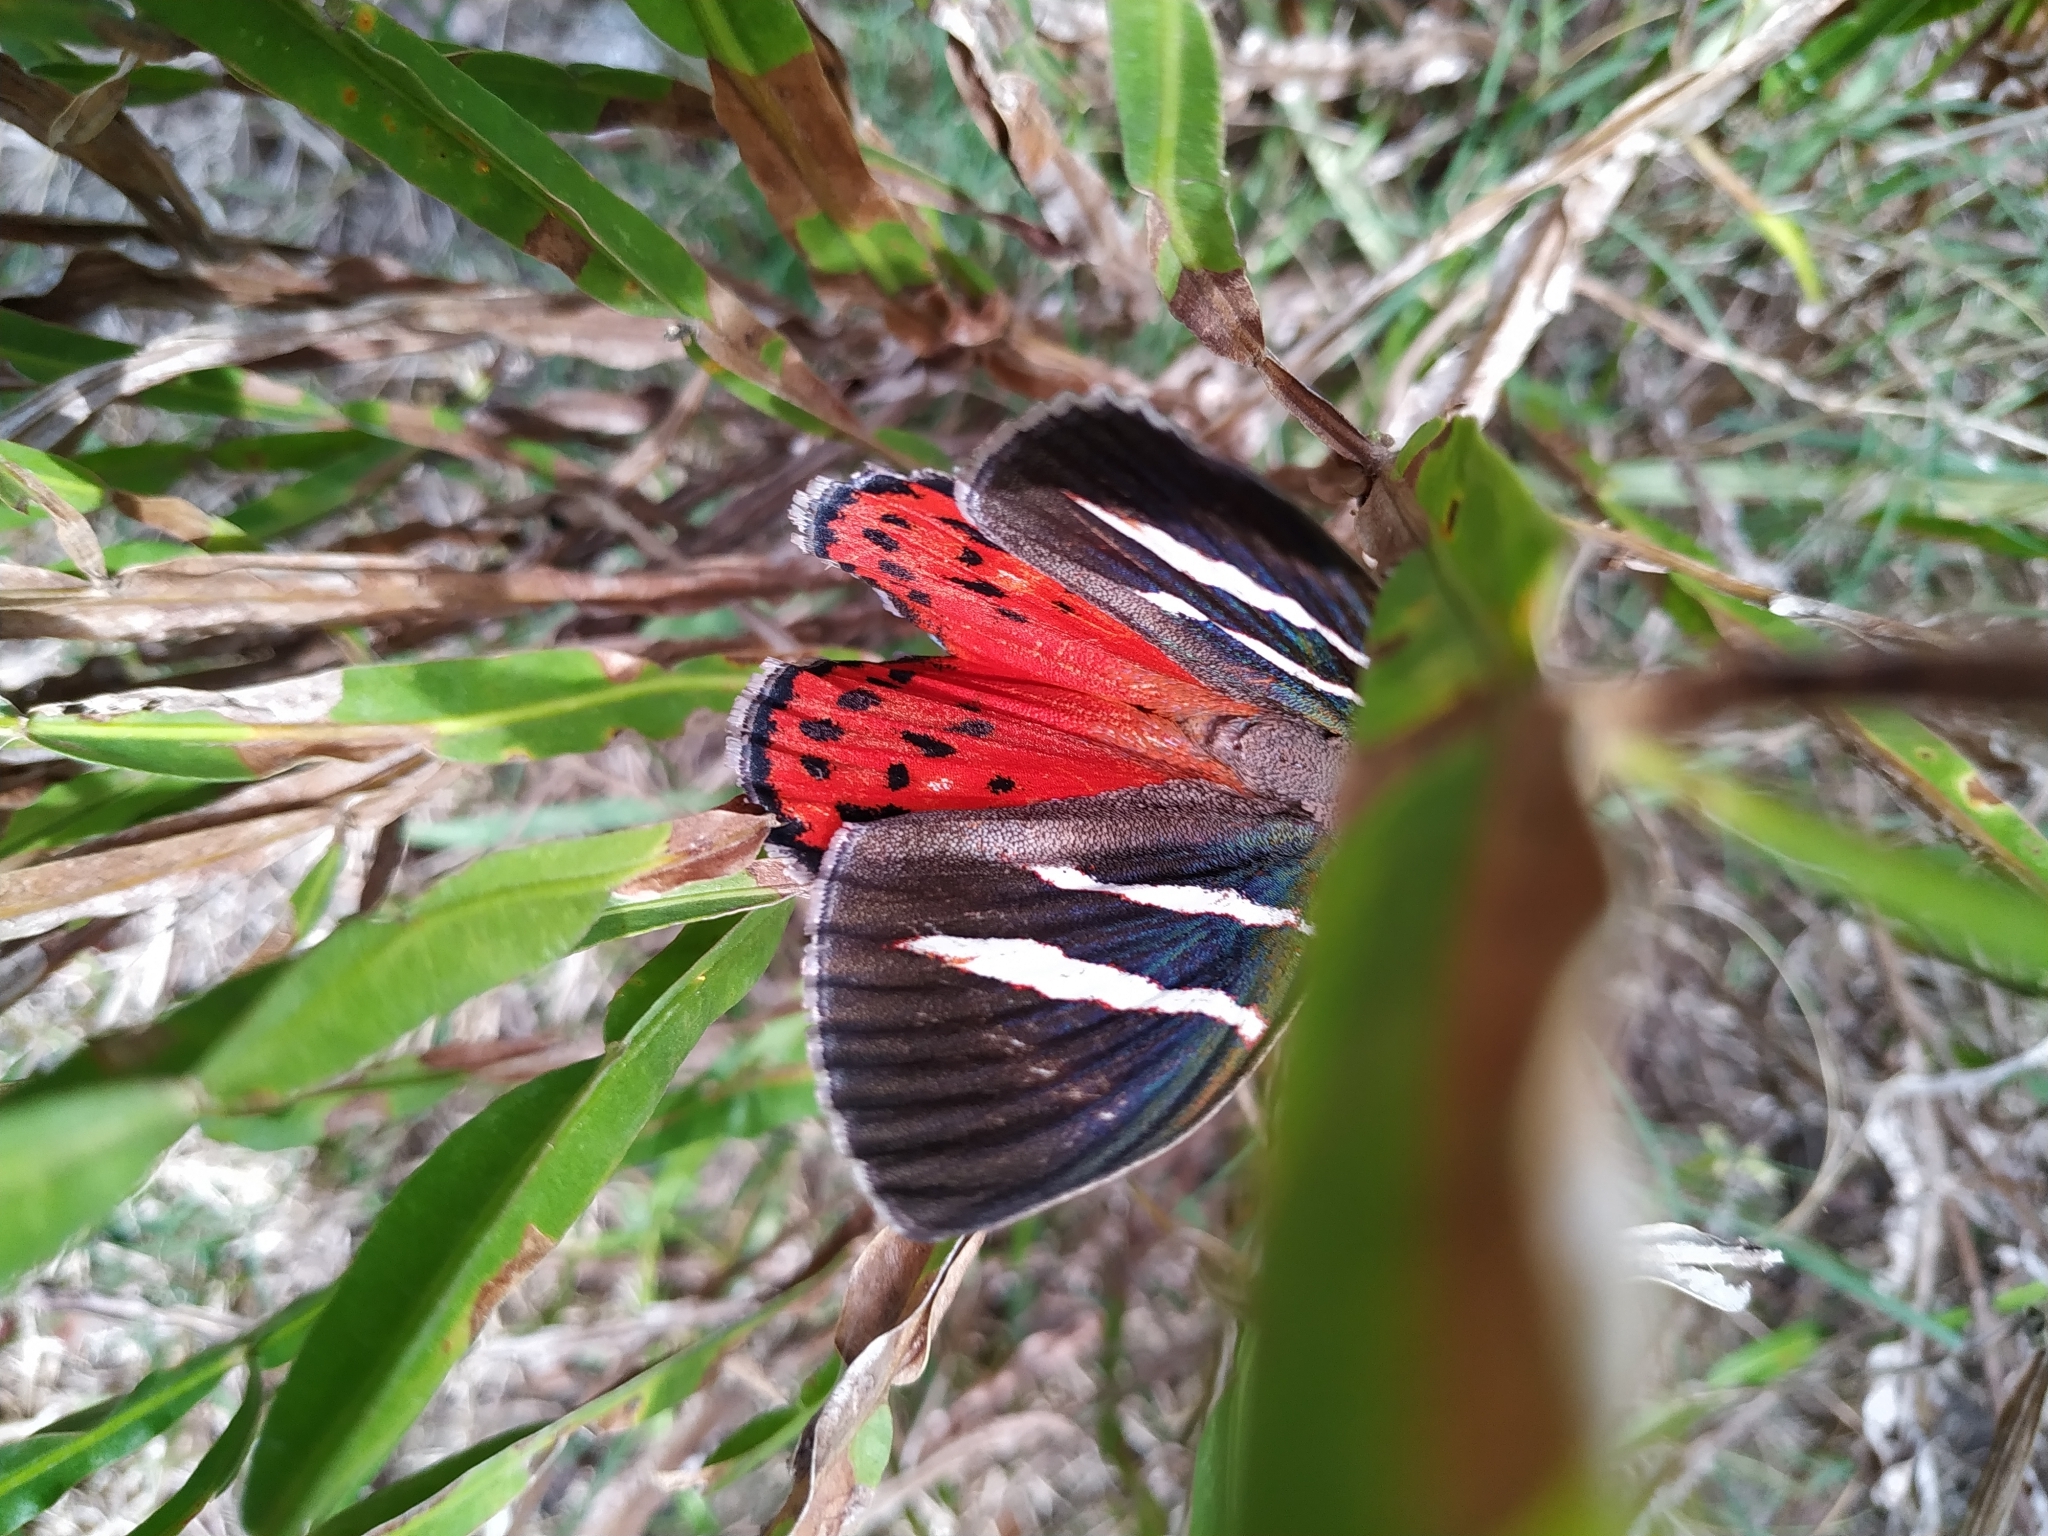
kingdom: Animalia
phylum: Arthropoda
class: Insecta
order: Lepidoptera
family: Nymphalidae
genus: Elina
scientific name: Elina invaria
